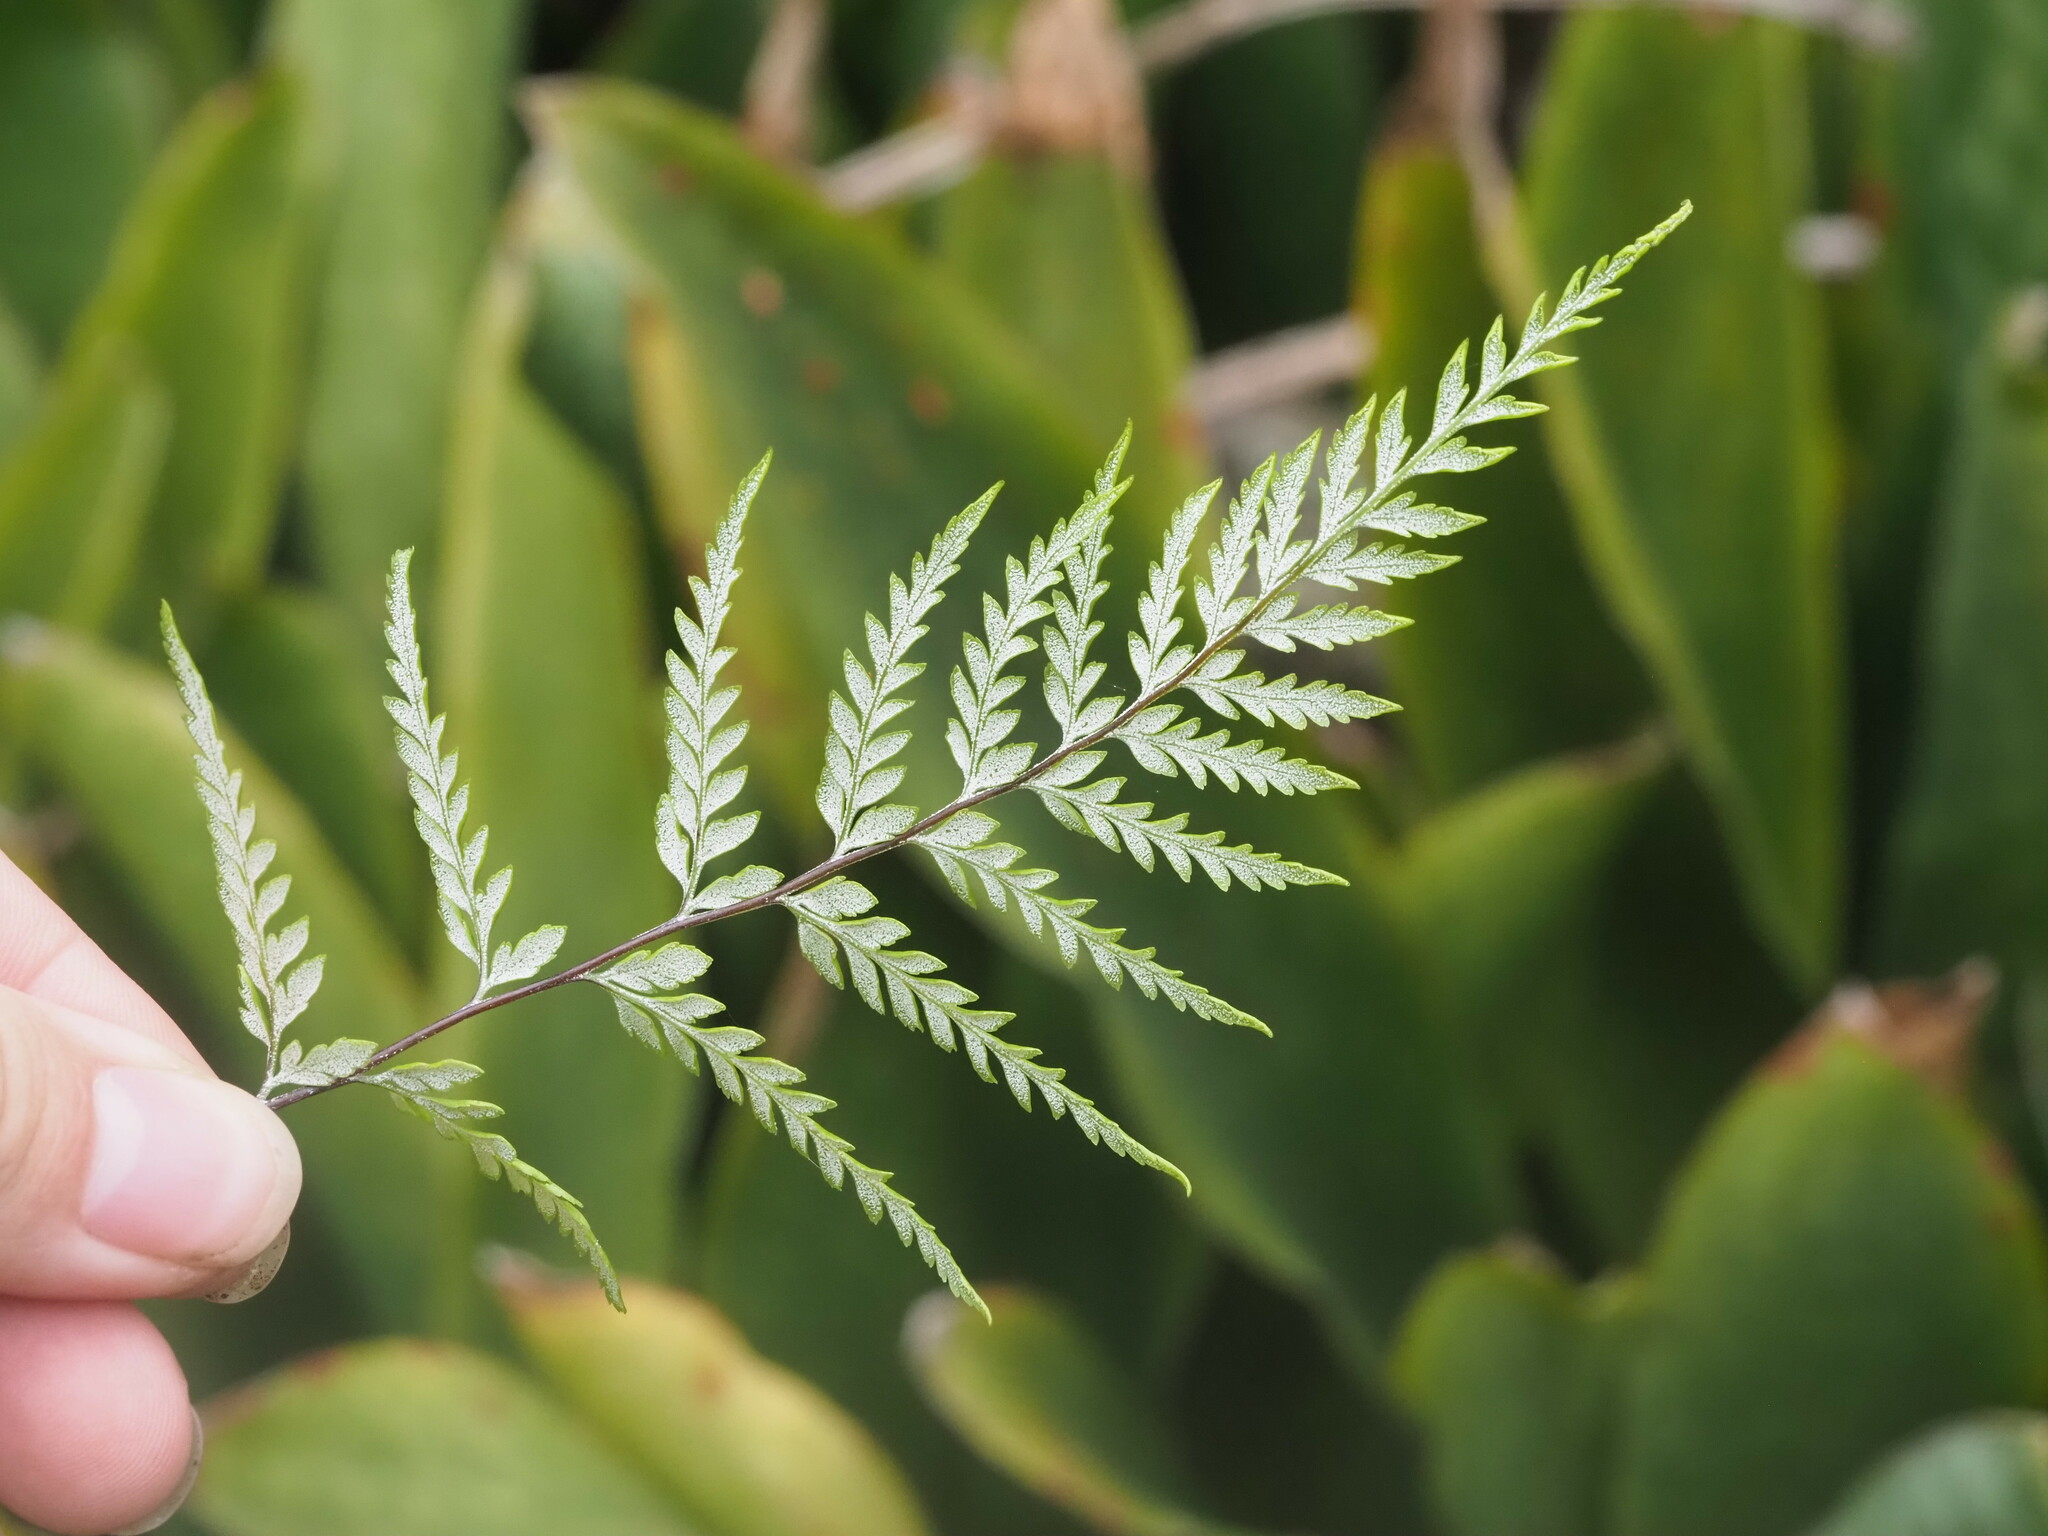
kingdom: Plantae
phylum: Tracheophyta
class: Polypodiopsida
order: Polypodiales
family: Pteridaceae
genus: Pityrogramma
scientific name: Pityrogramma calomelanos
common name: Dixie silverback fern
